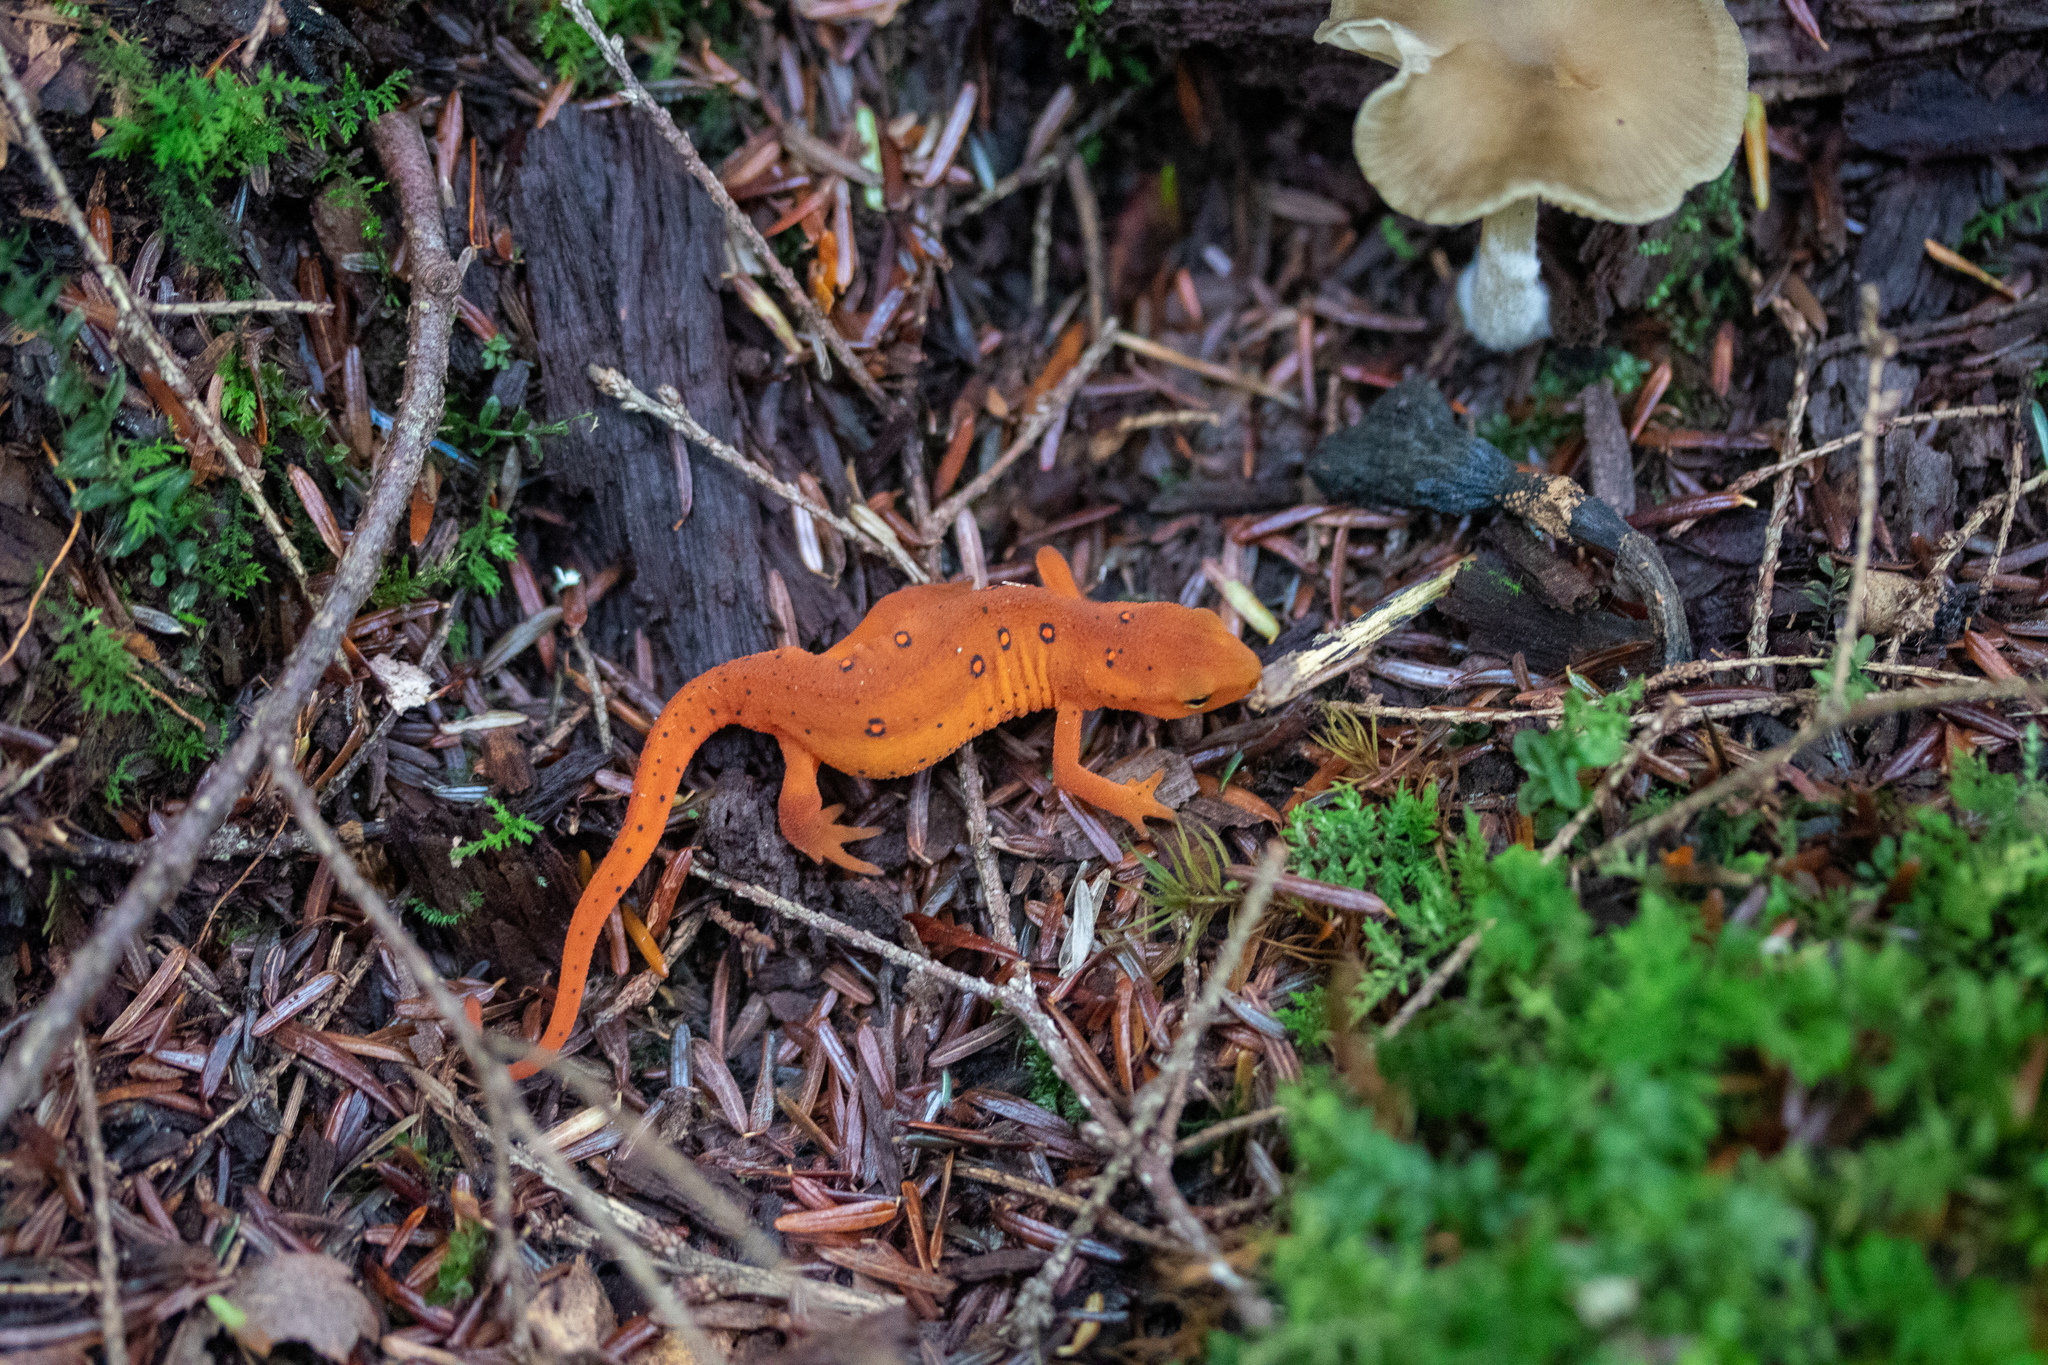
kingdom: Animalia
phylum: Chordata
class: Amphibia
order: Caudata
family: Salamandridae
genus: Notophthalmus
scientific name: Notophthalmus viridescens
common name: Eastern newt
